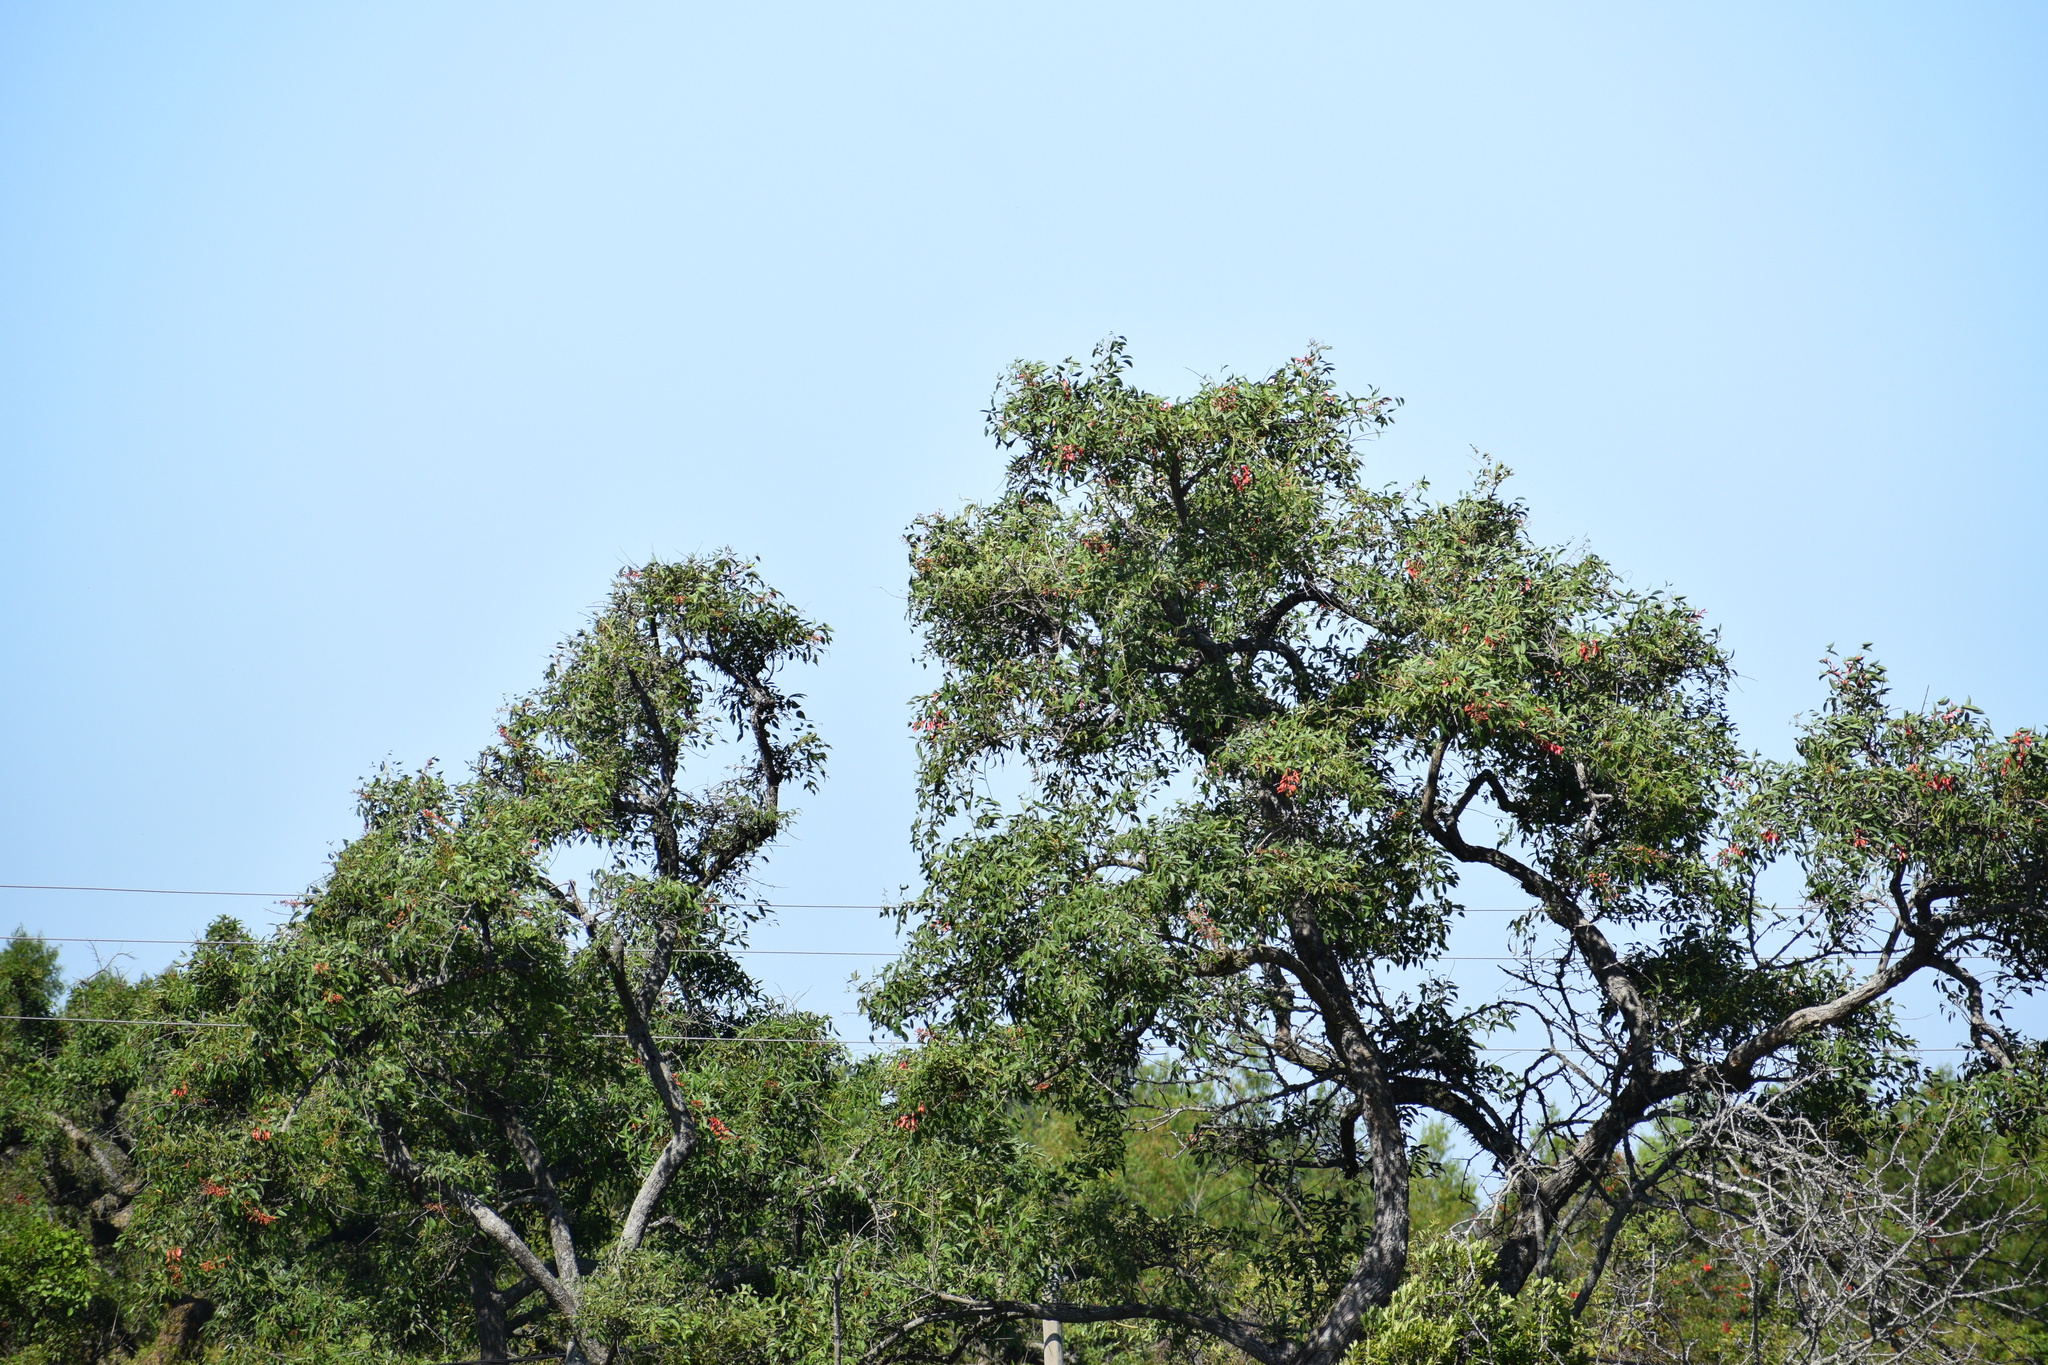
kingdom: Plantae
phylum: Tracheophyta
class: Magnoliopsida
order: Fabales
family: Fabaceae
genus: Erythrina
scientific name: Erythrina crista-galli
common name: Cockspur coral tree
